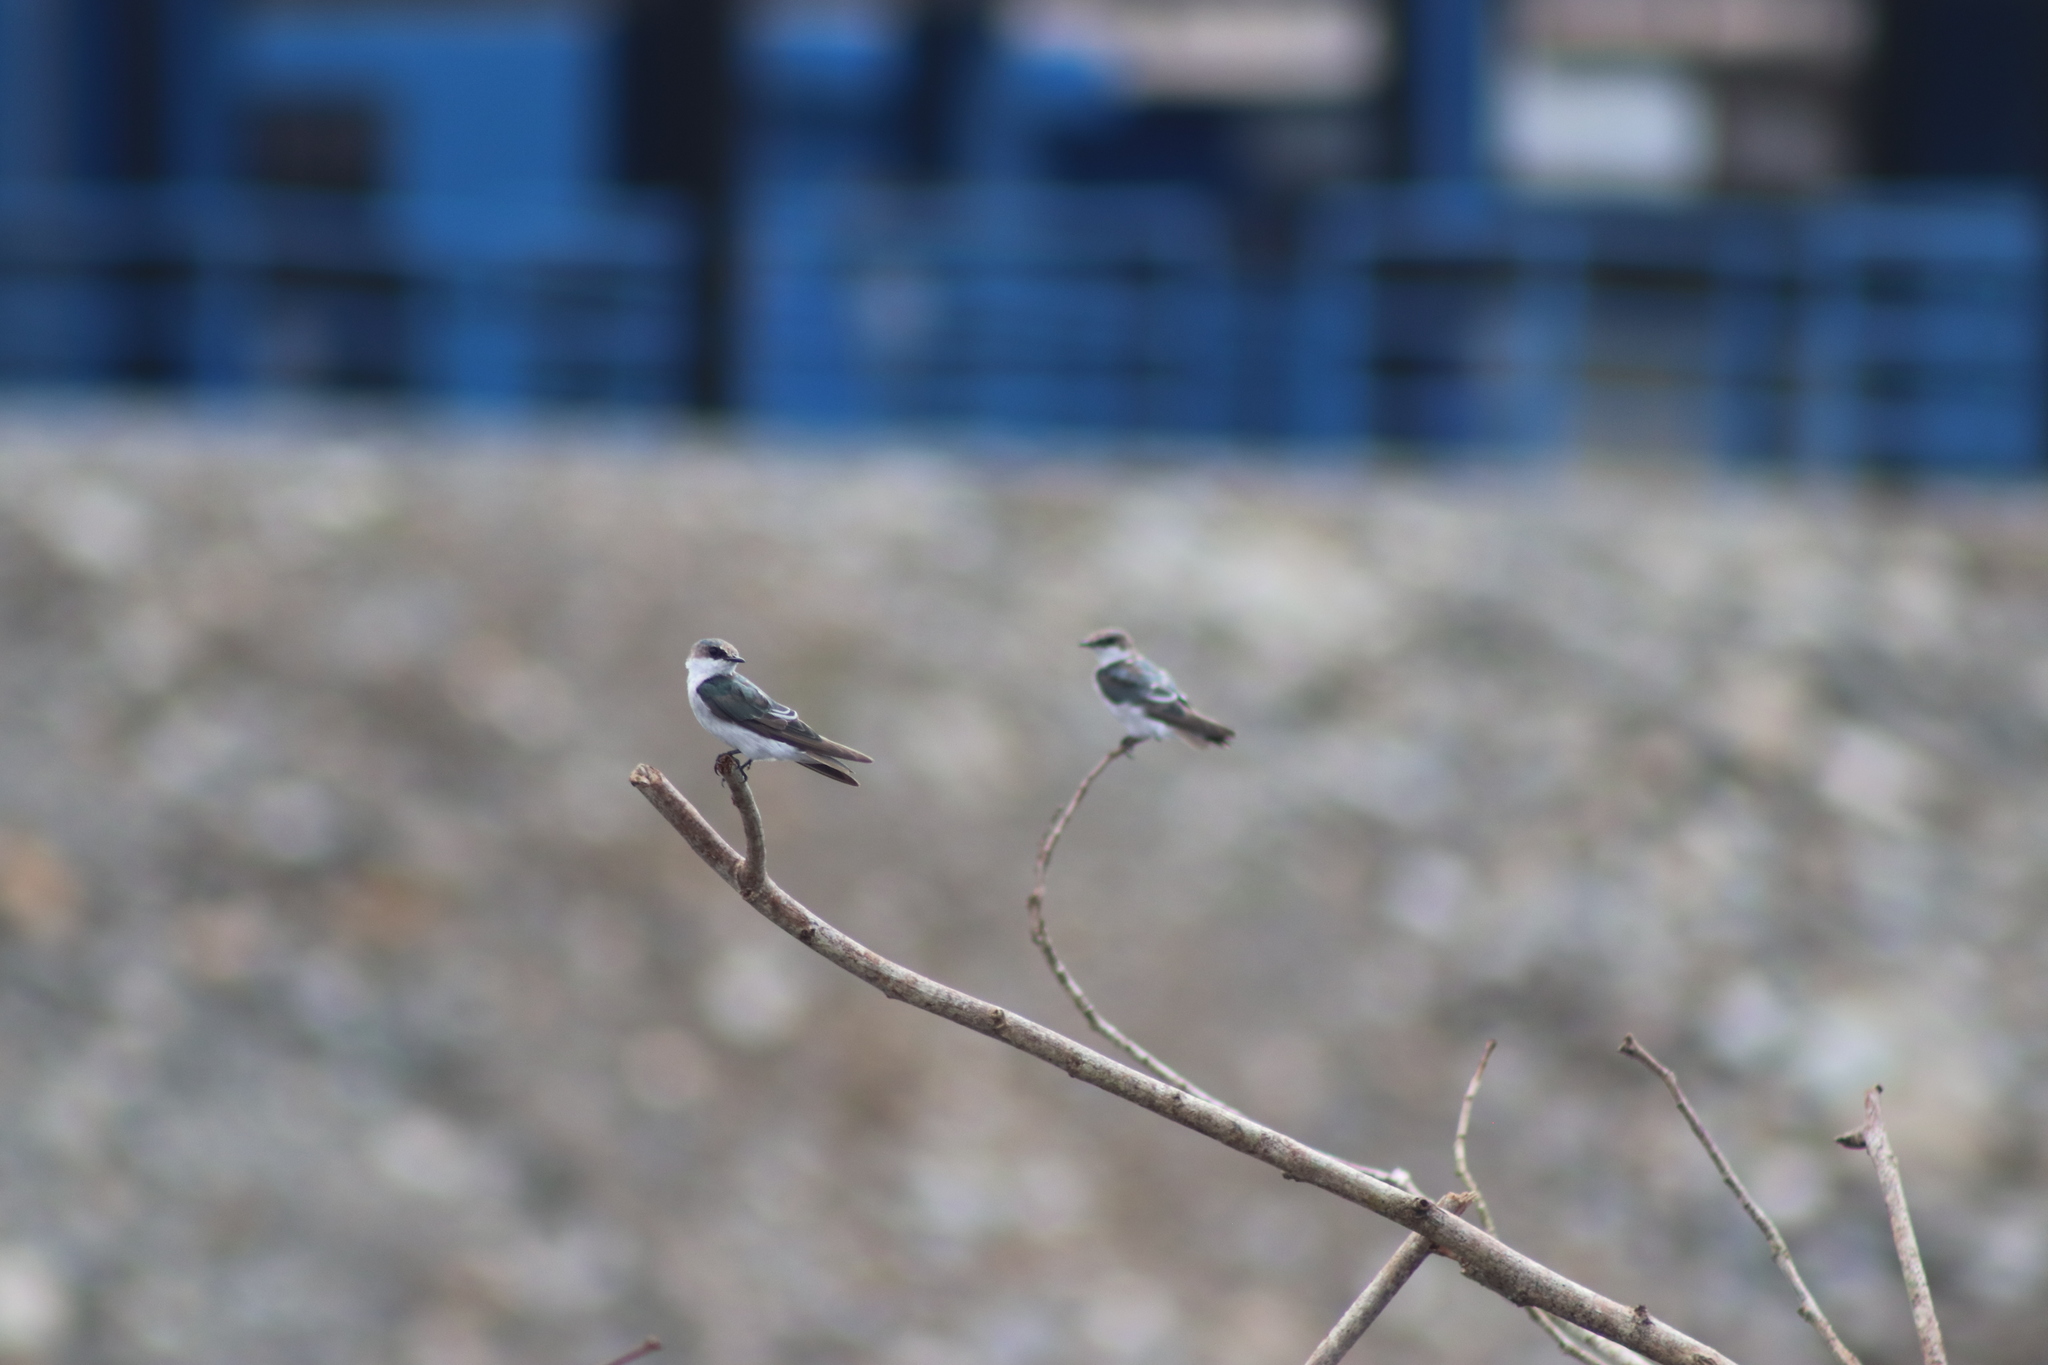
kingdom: Animalia
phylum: Chordata
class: Aves
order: Passeriformes
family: Hirundinidae
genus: Tachycineta
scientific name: Tachycineta albilinea
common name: Mangrove swallow
